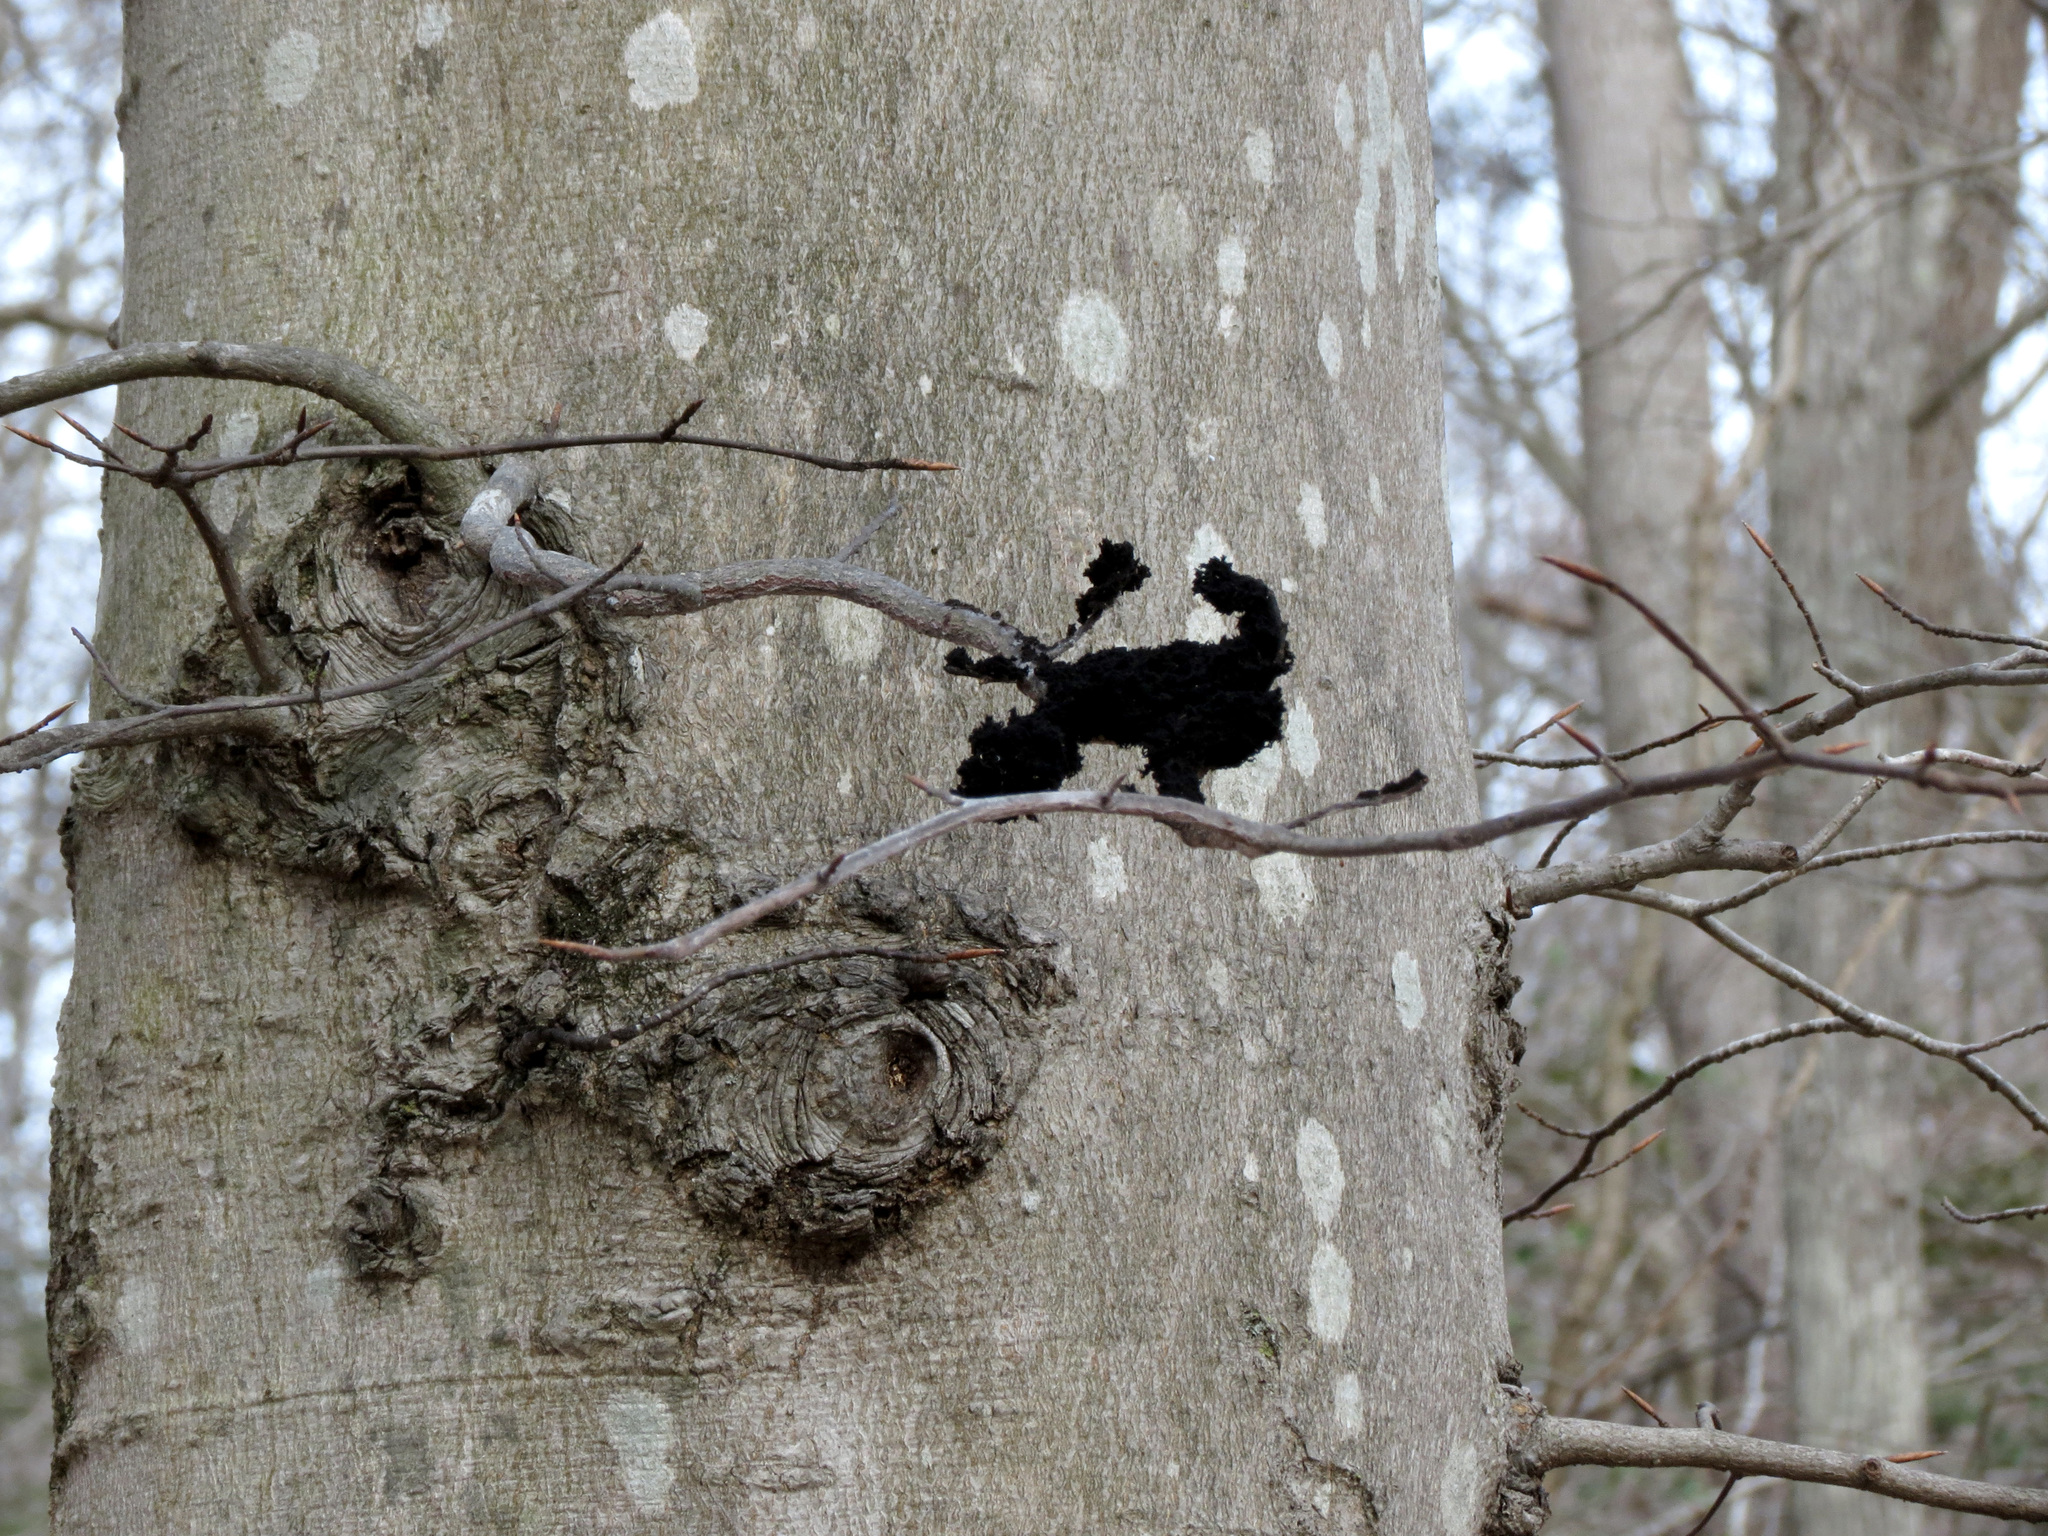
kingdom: Fungi
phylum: Ascomycota
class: Dothideomycetes
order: Capnodiales
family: Capnodiaceae
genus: Scorias
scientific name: Scorias spongiosa
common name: Black sooty mold
